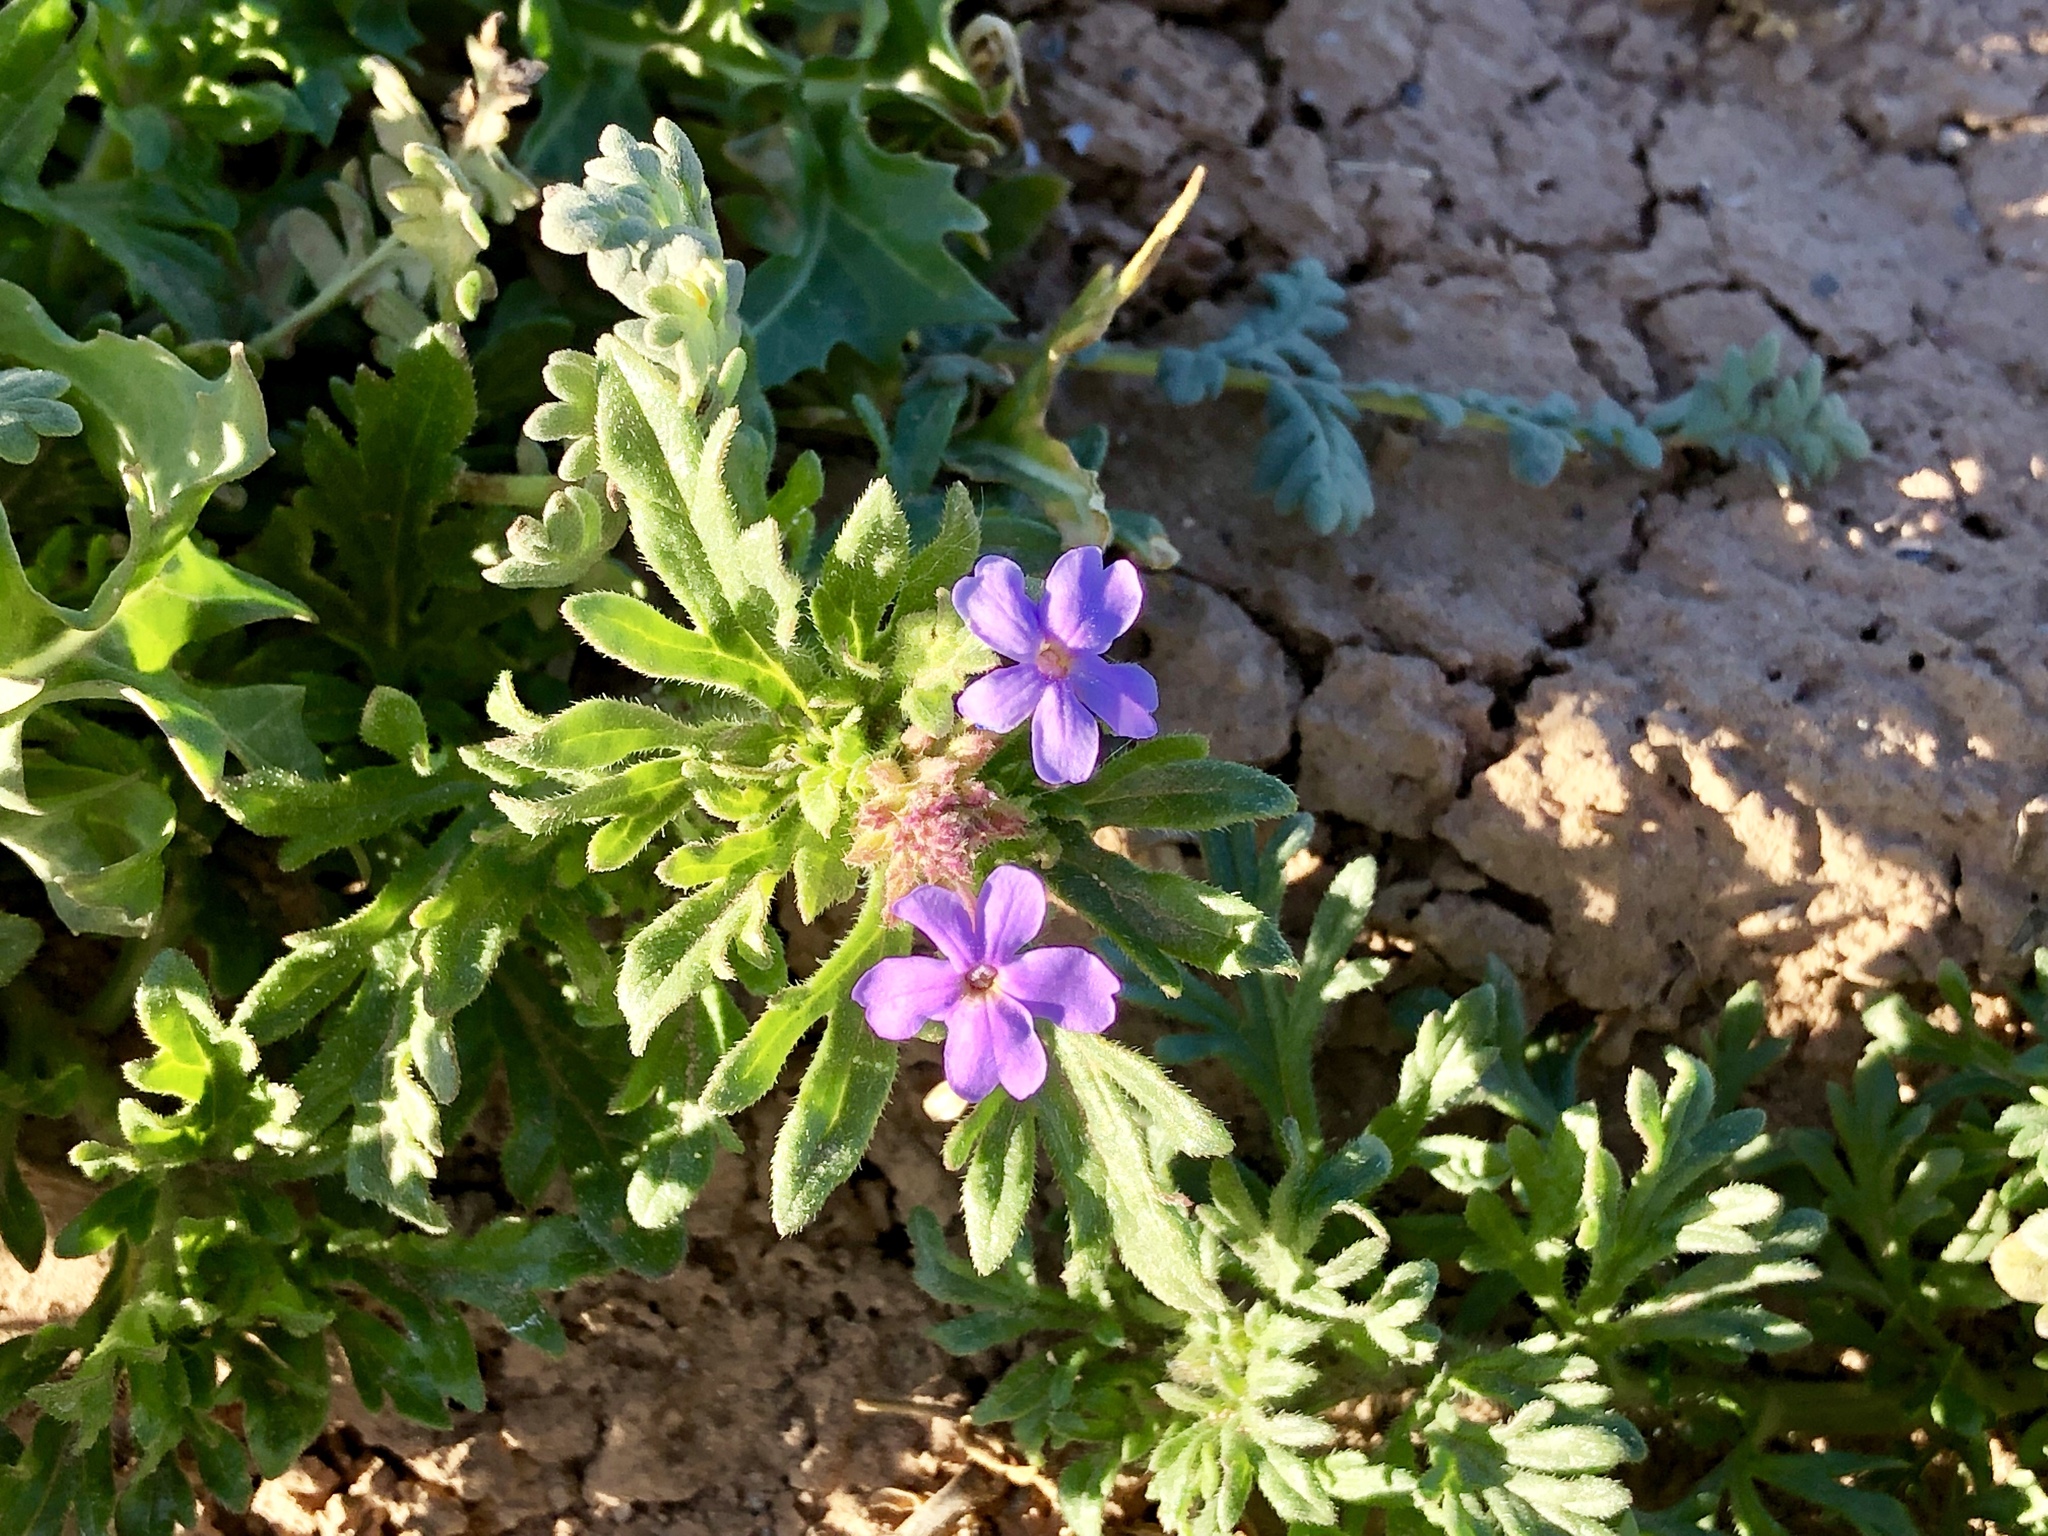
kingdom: Plantae
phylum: Tracheophyta
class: Magnoliopsida
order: Lamiales
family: Verbenaceae
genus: Verbena
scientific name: Verbena bipinnatifida
